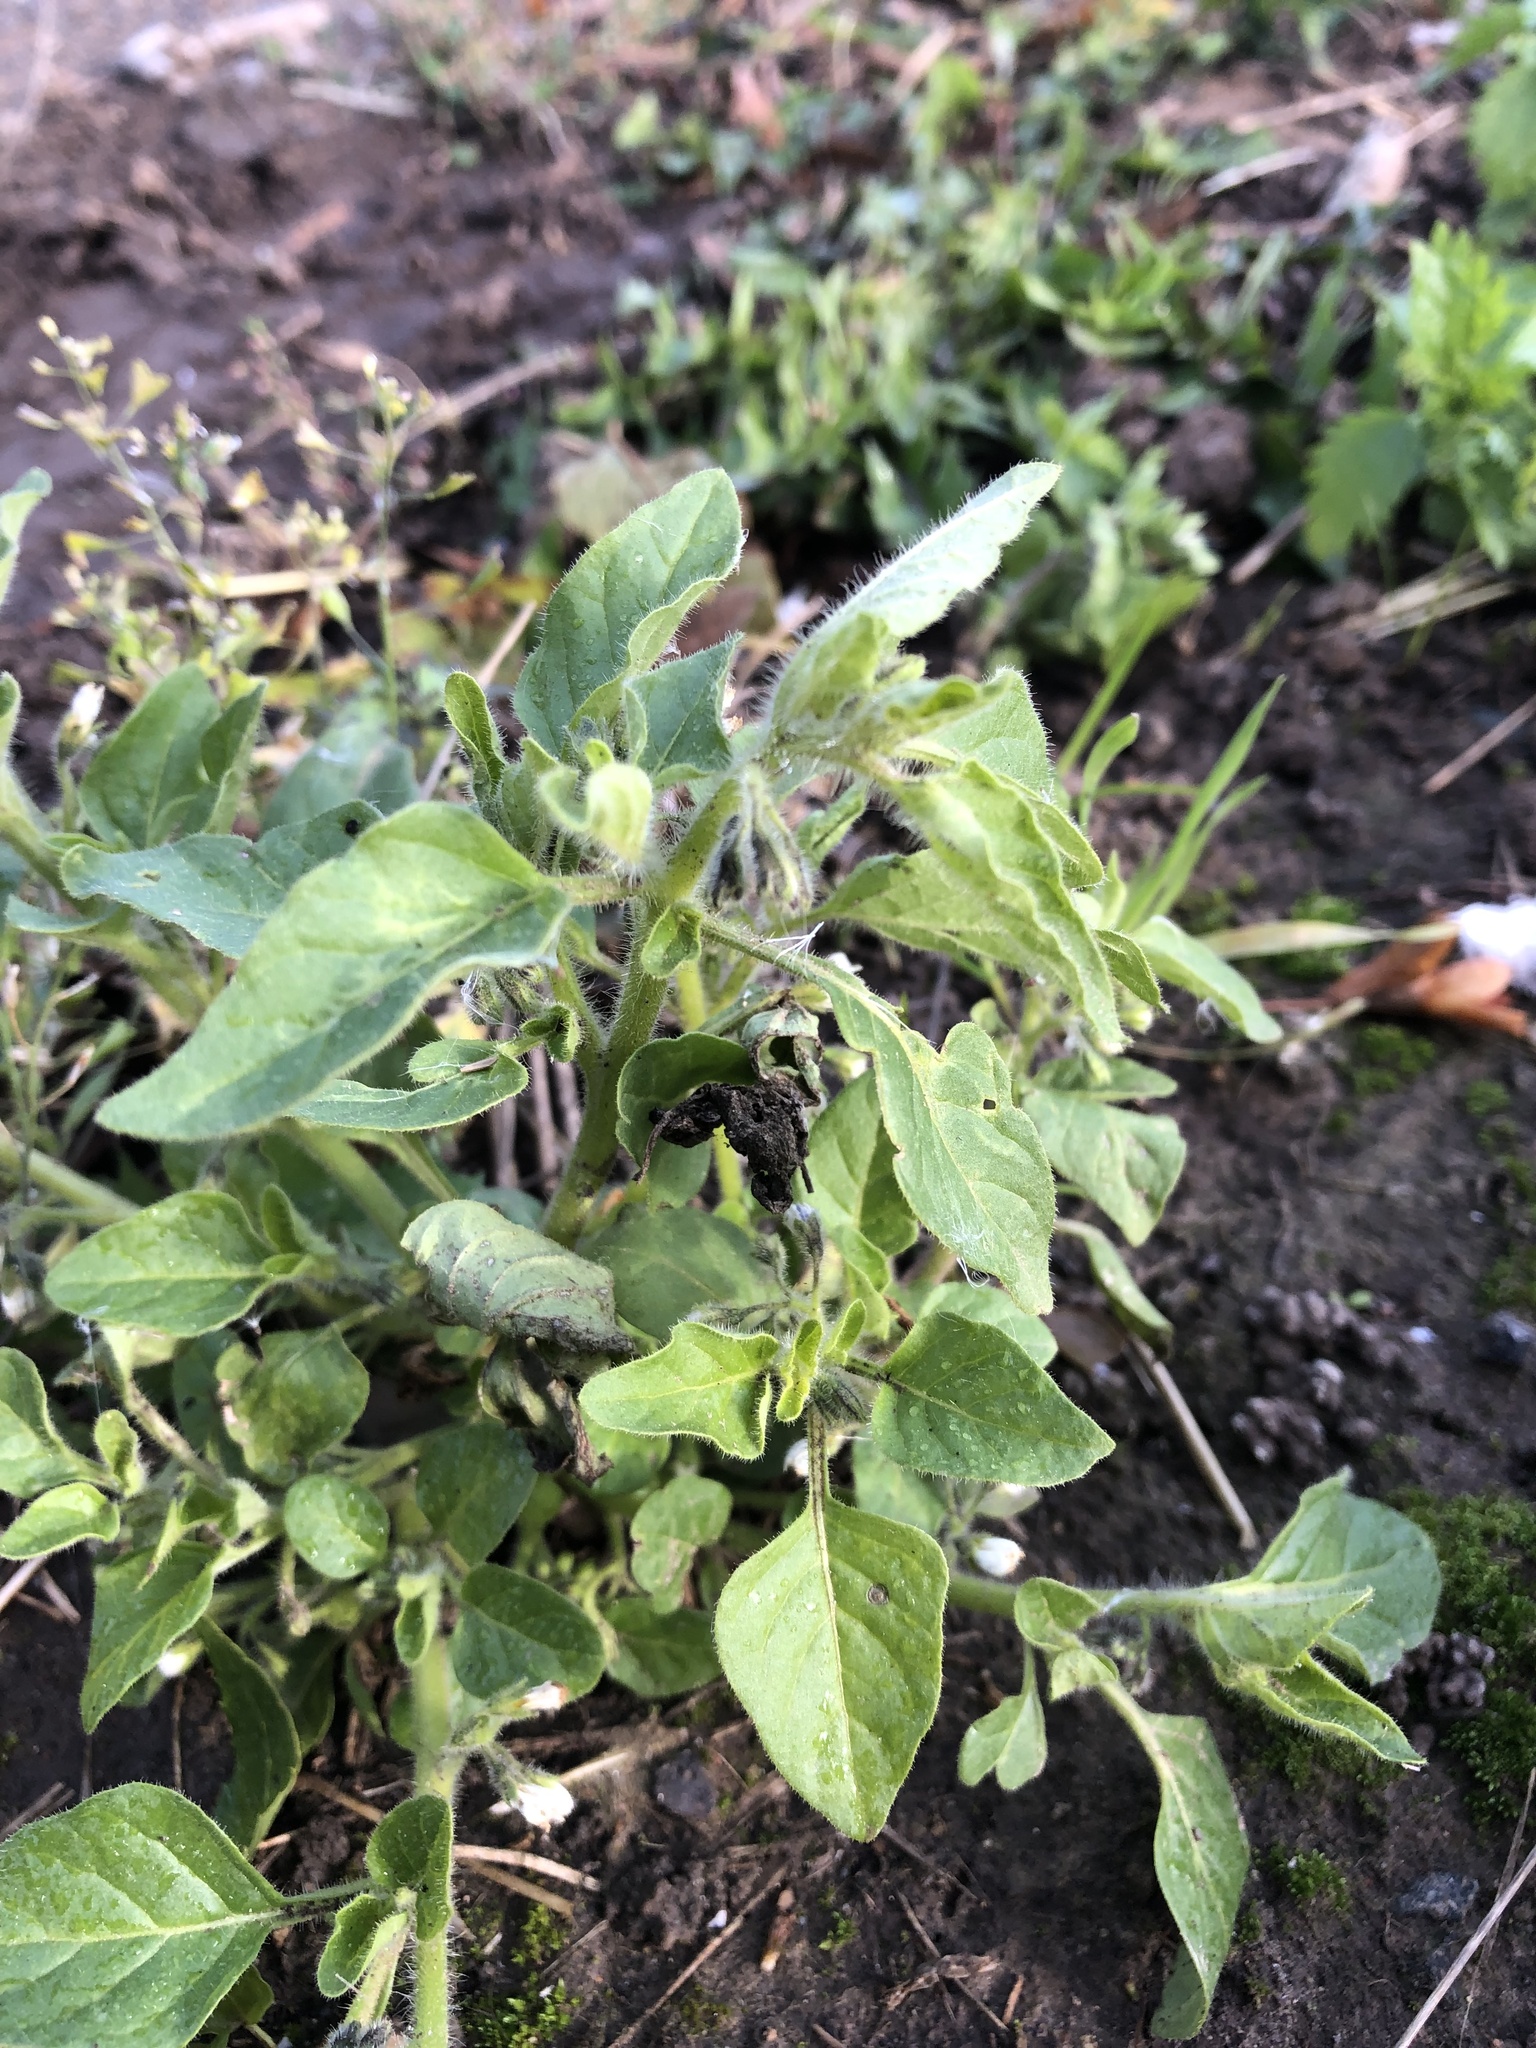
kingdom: Plantae
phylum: Tracheophyta
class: Magnoliopsida
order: Solanales
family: Solanaceae
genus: Solanum
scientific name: Solanum nitidibaccatum
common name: Hairy nightshade
